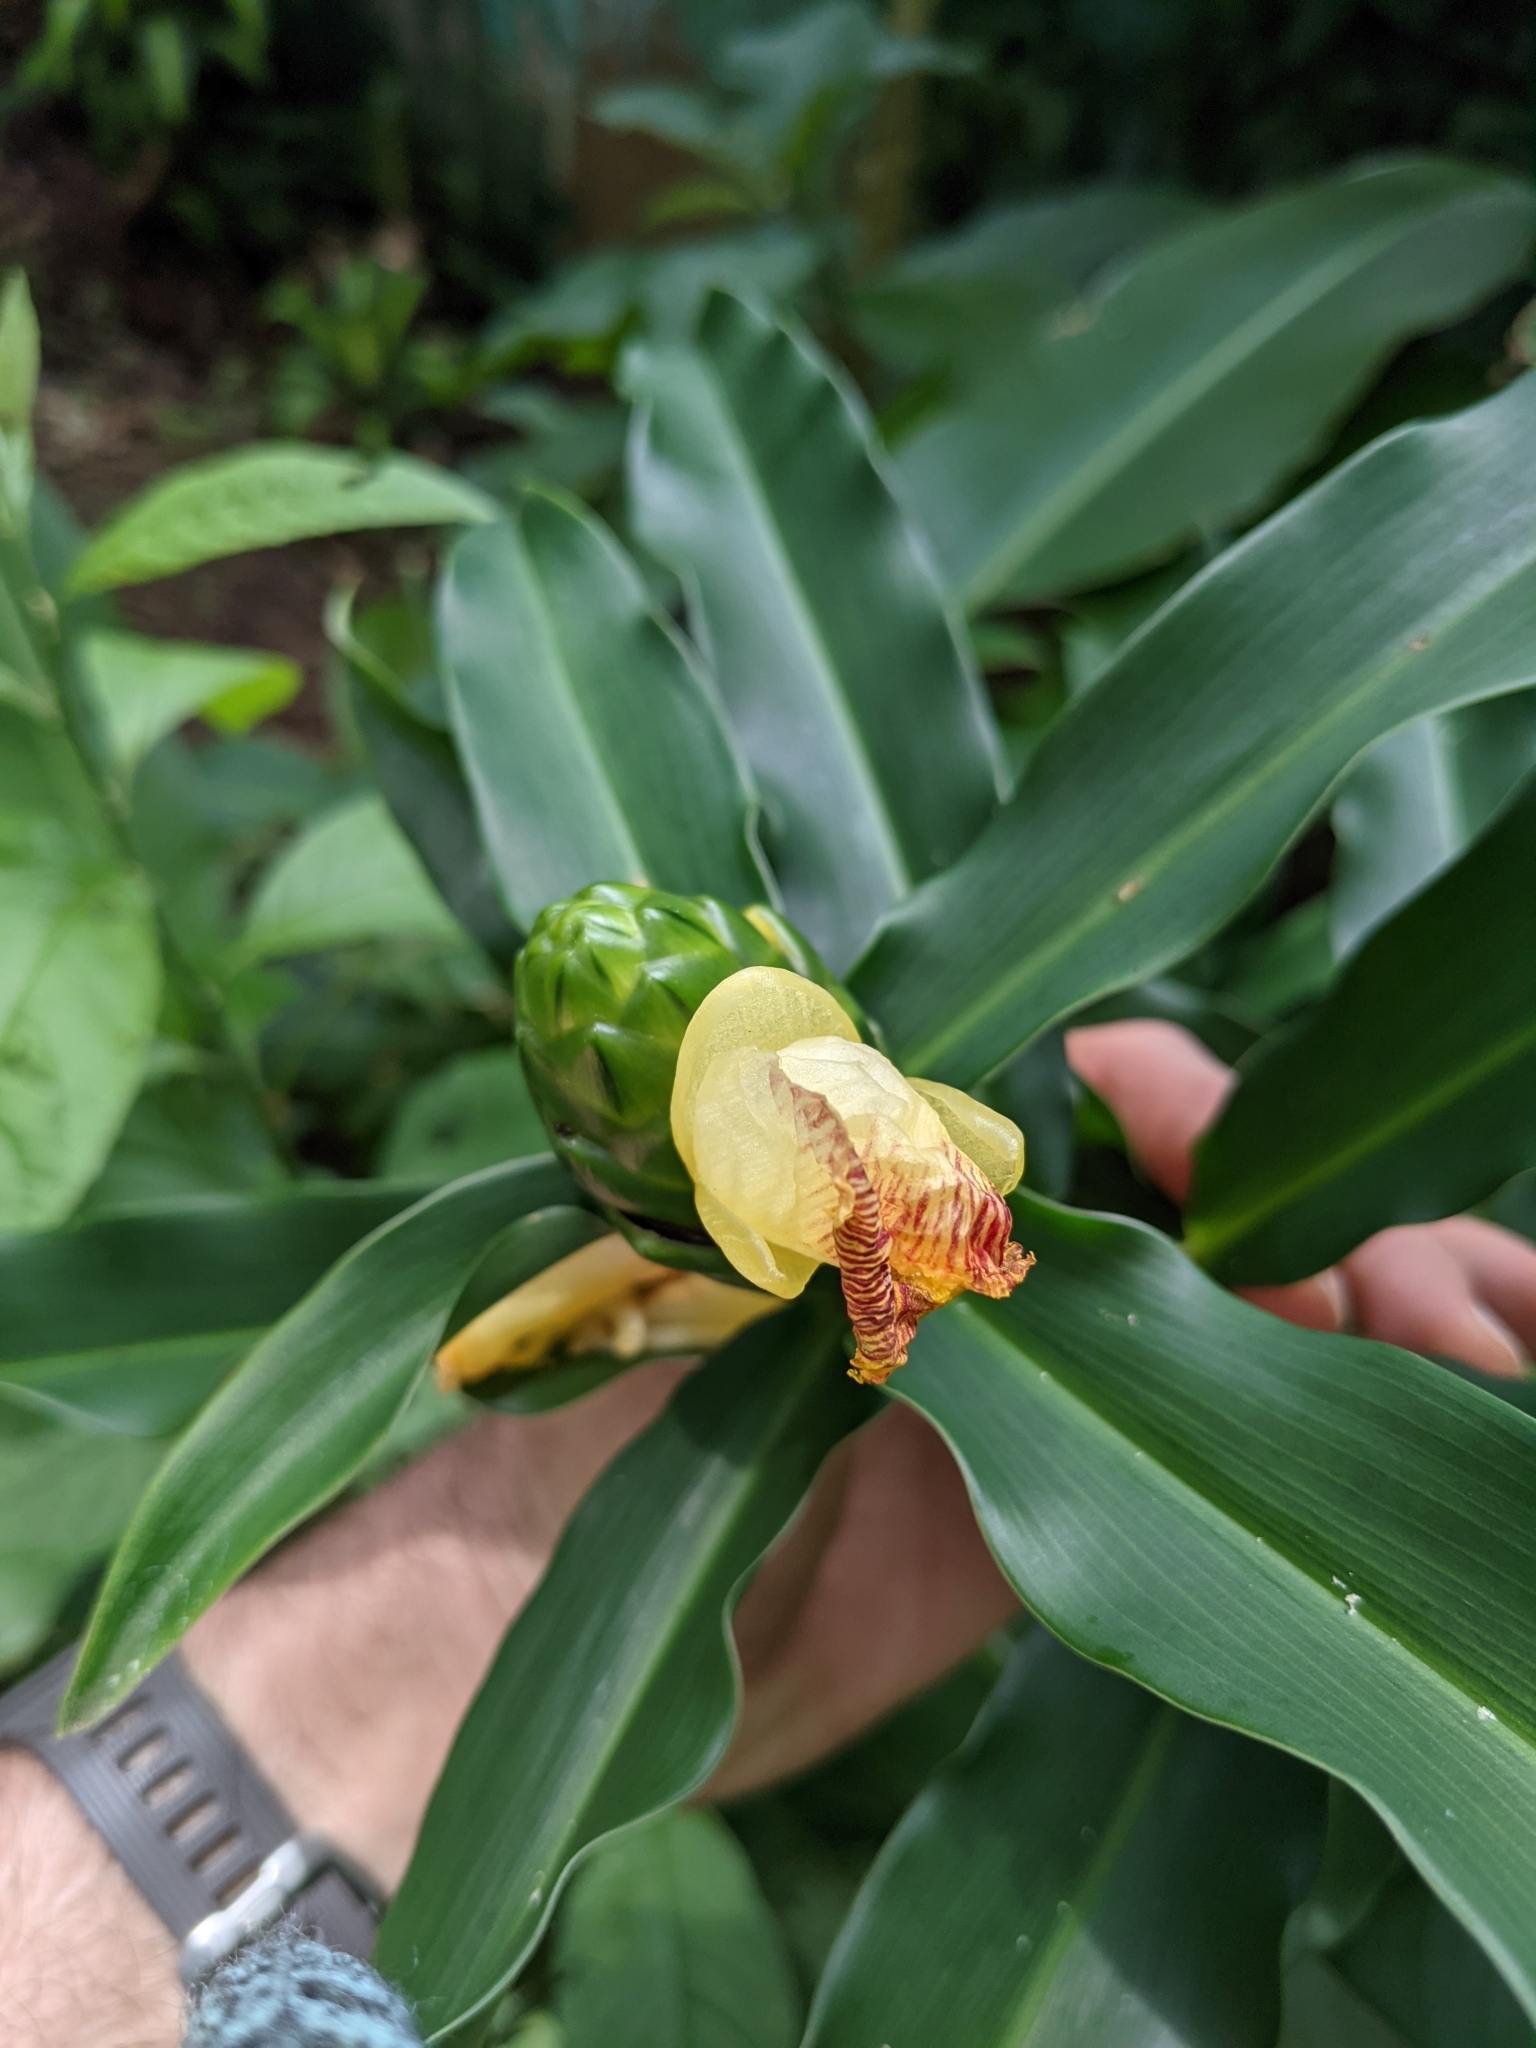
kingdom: Plantae
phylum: Tracheophyta
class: Liliopsida
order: Zingiberales
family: Costaceae
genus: Costus
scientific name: Costus pictus
